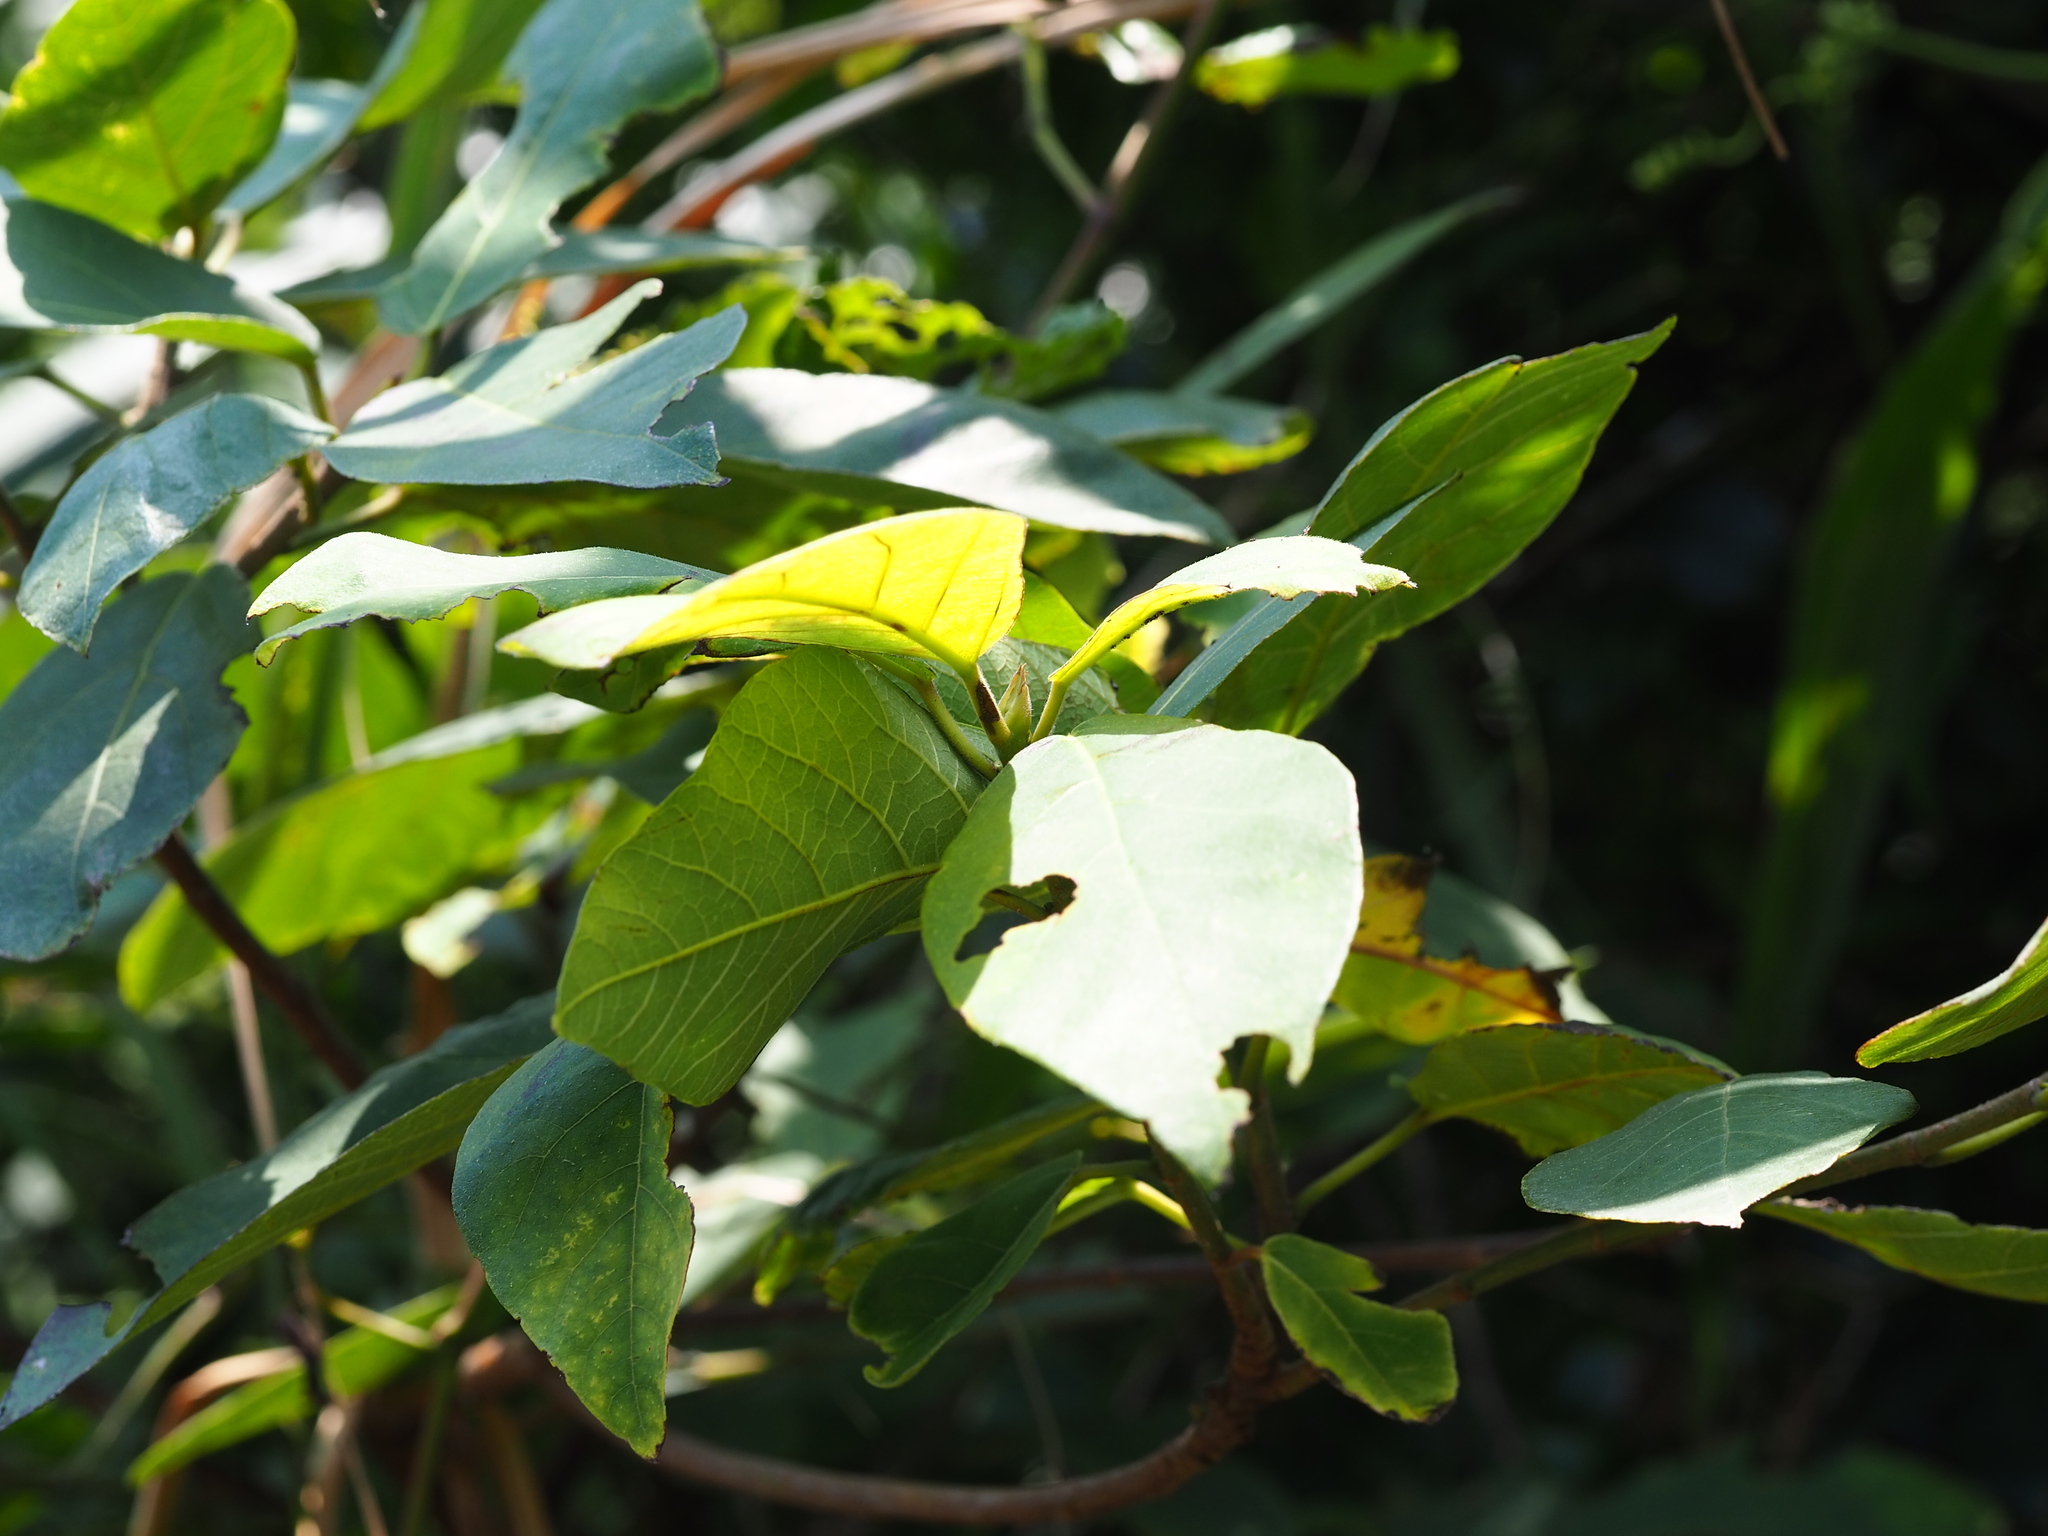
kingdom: Plantae
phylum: Tracheophyta
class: Magnoliopsida
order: Rosales
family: Moraceae
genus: Ficus
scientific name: Ficus erecta
